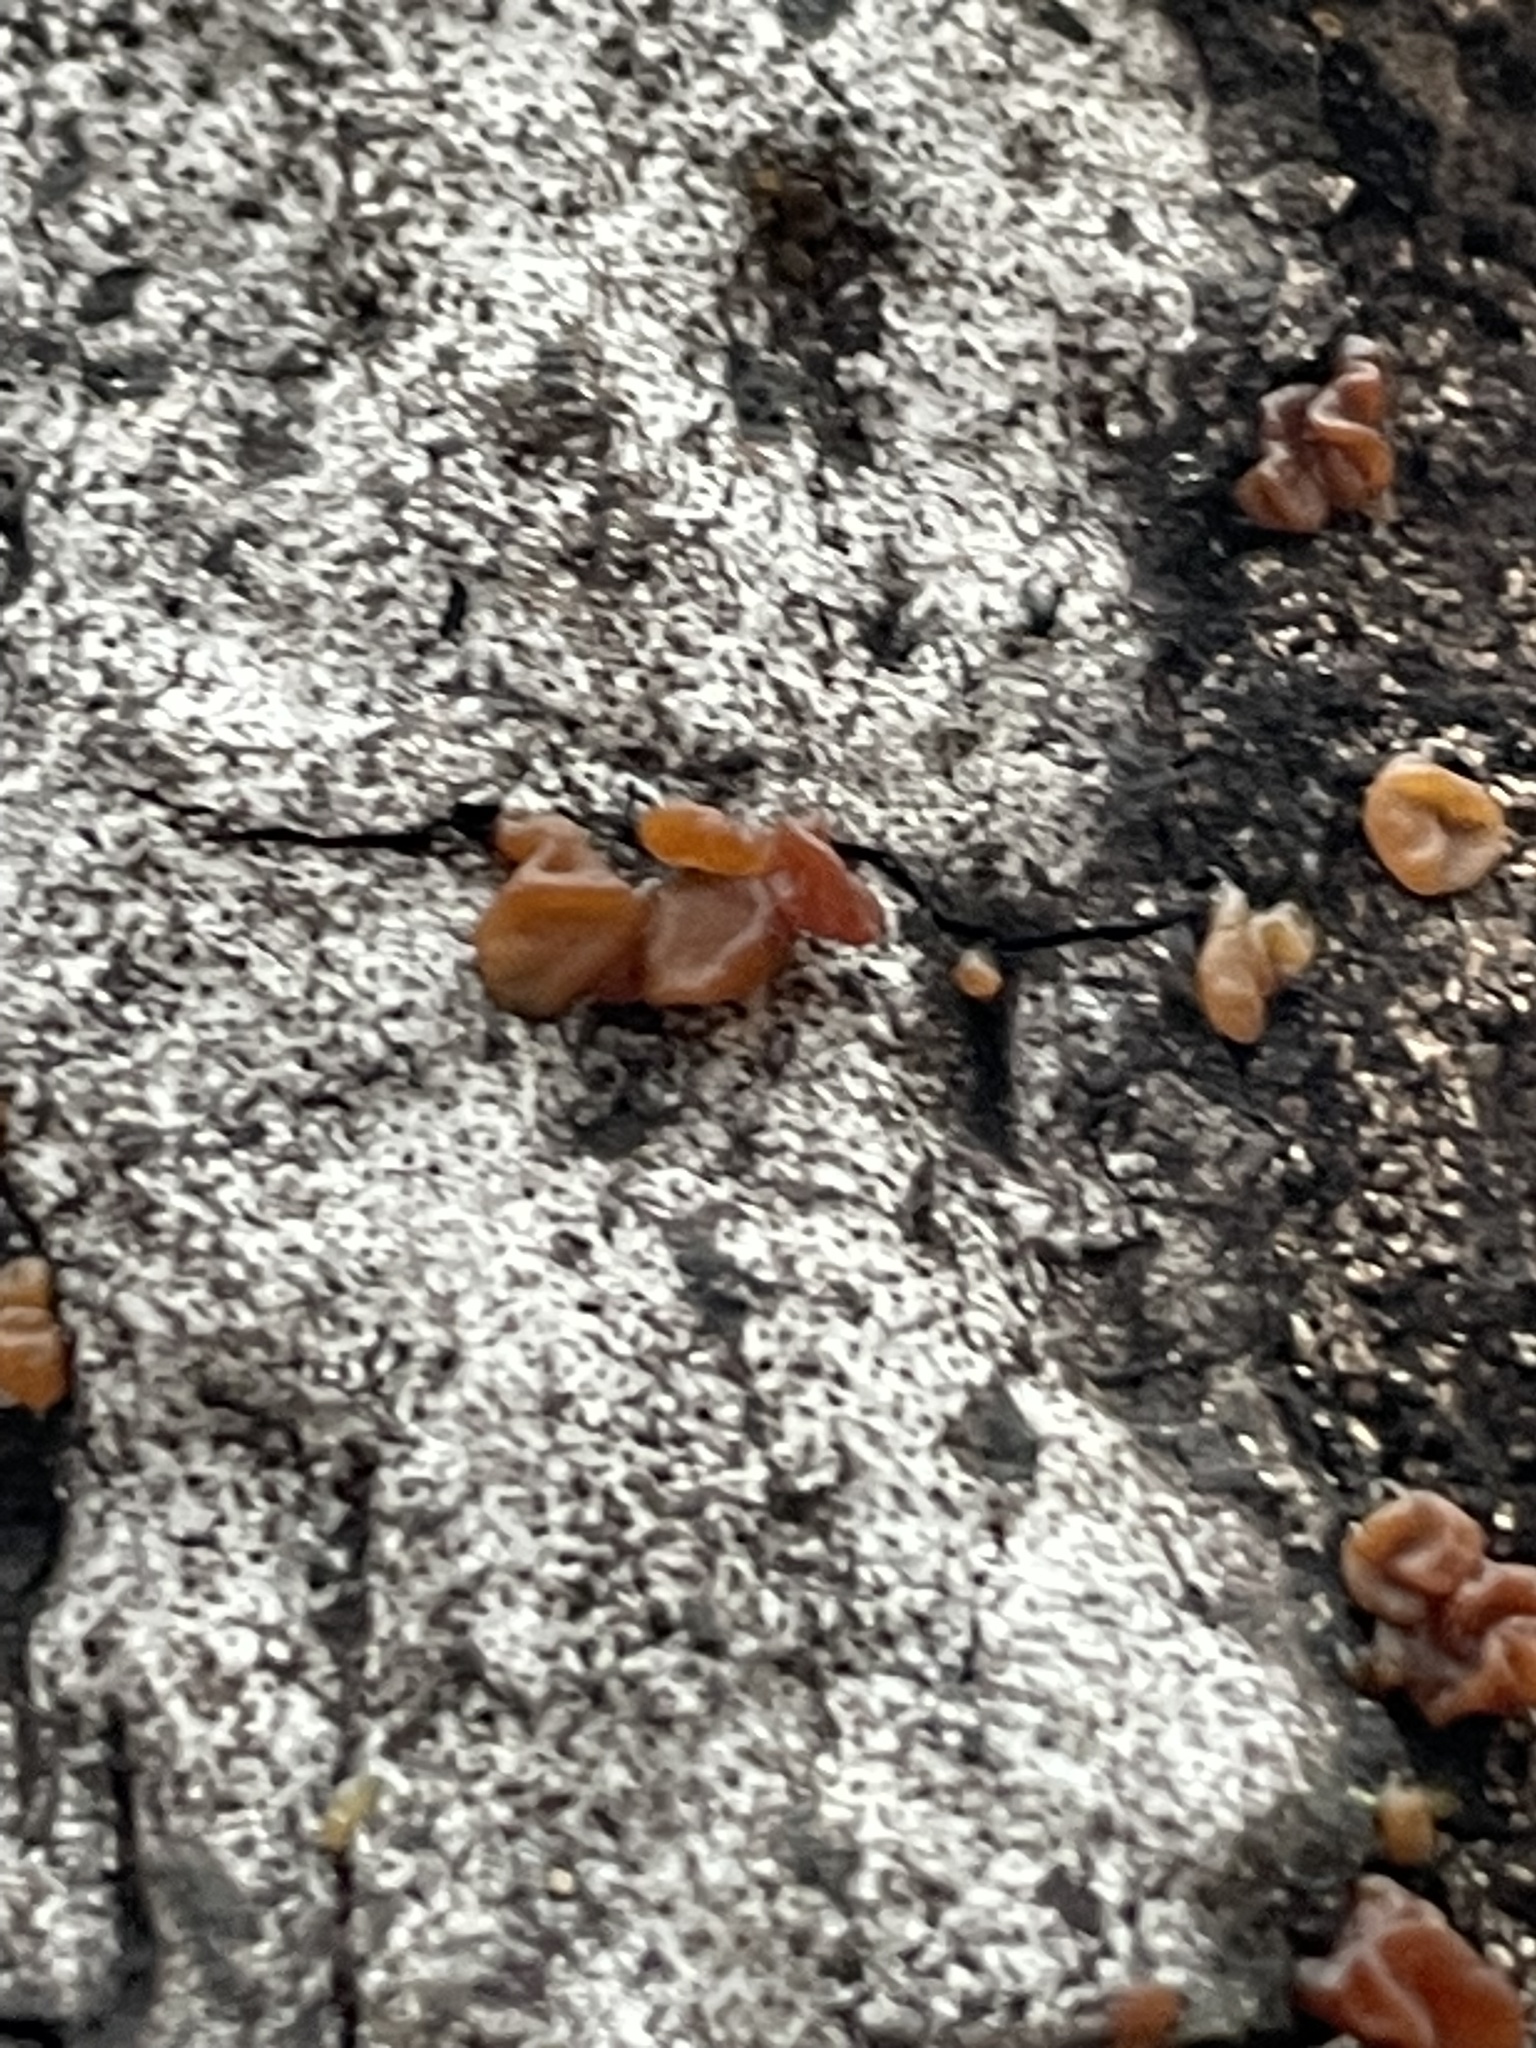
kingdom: Fungi
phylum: Basidiomycota
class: Dacrymycetes
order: Dacrymycetales
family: Dacrymycetaceae
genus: Dacrymyces
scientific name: Dacrymyces capitatus
